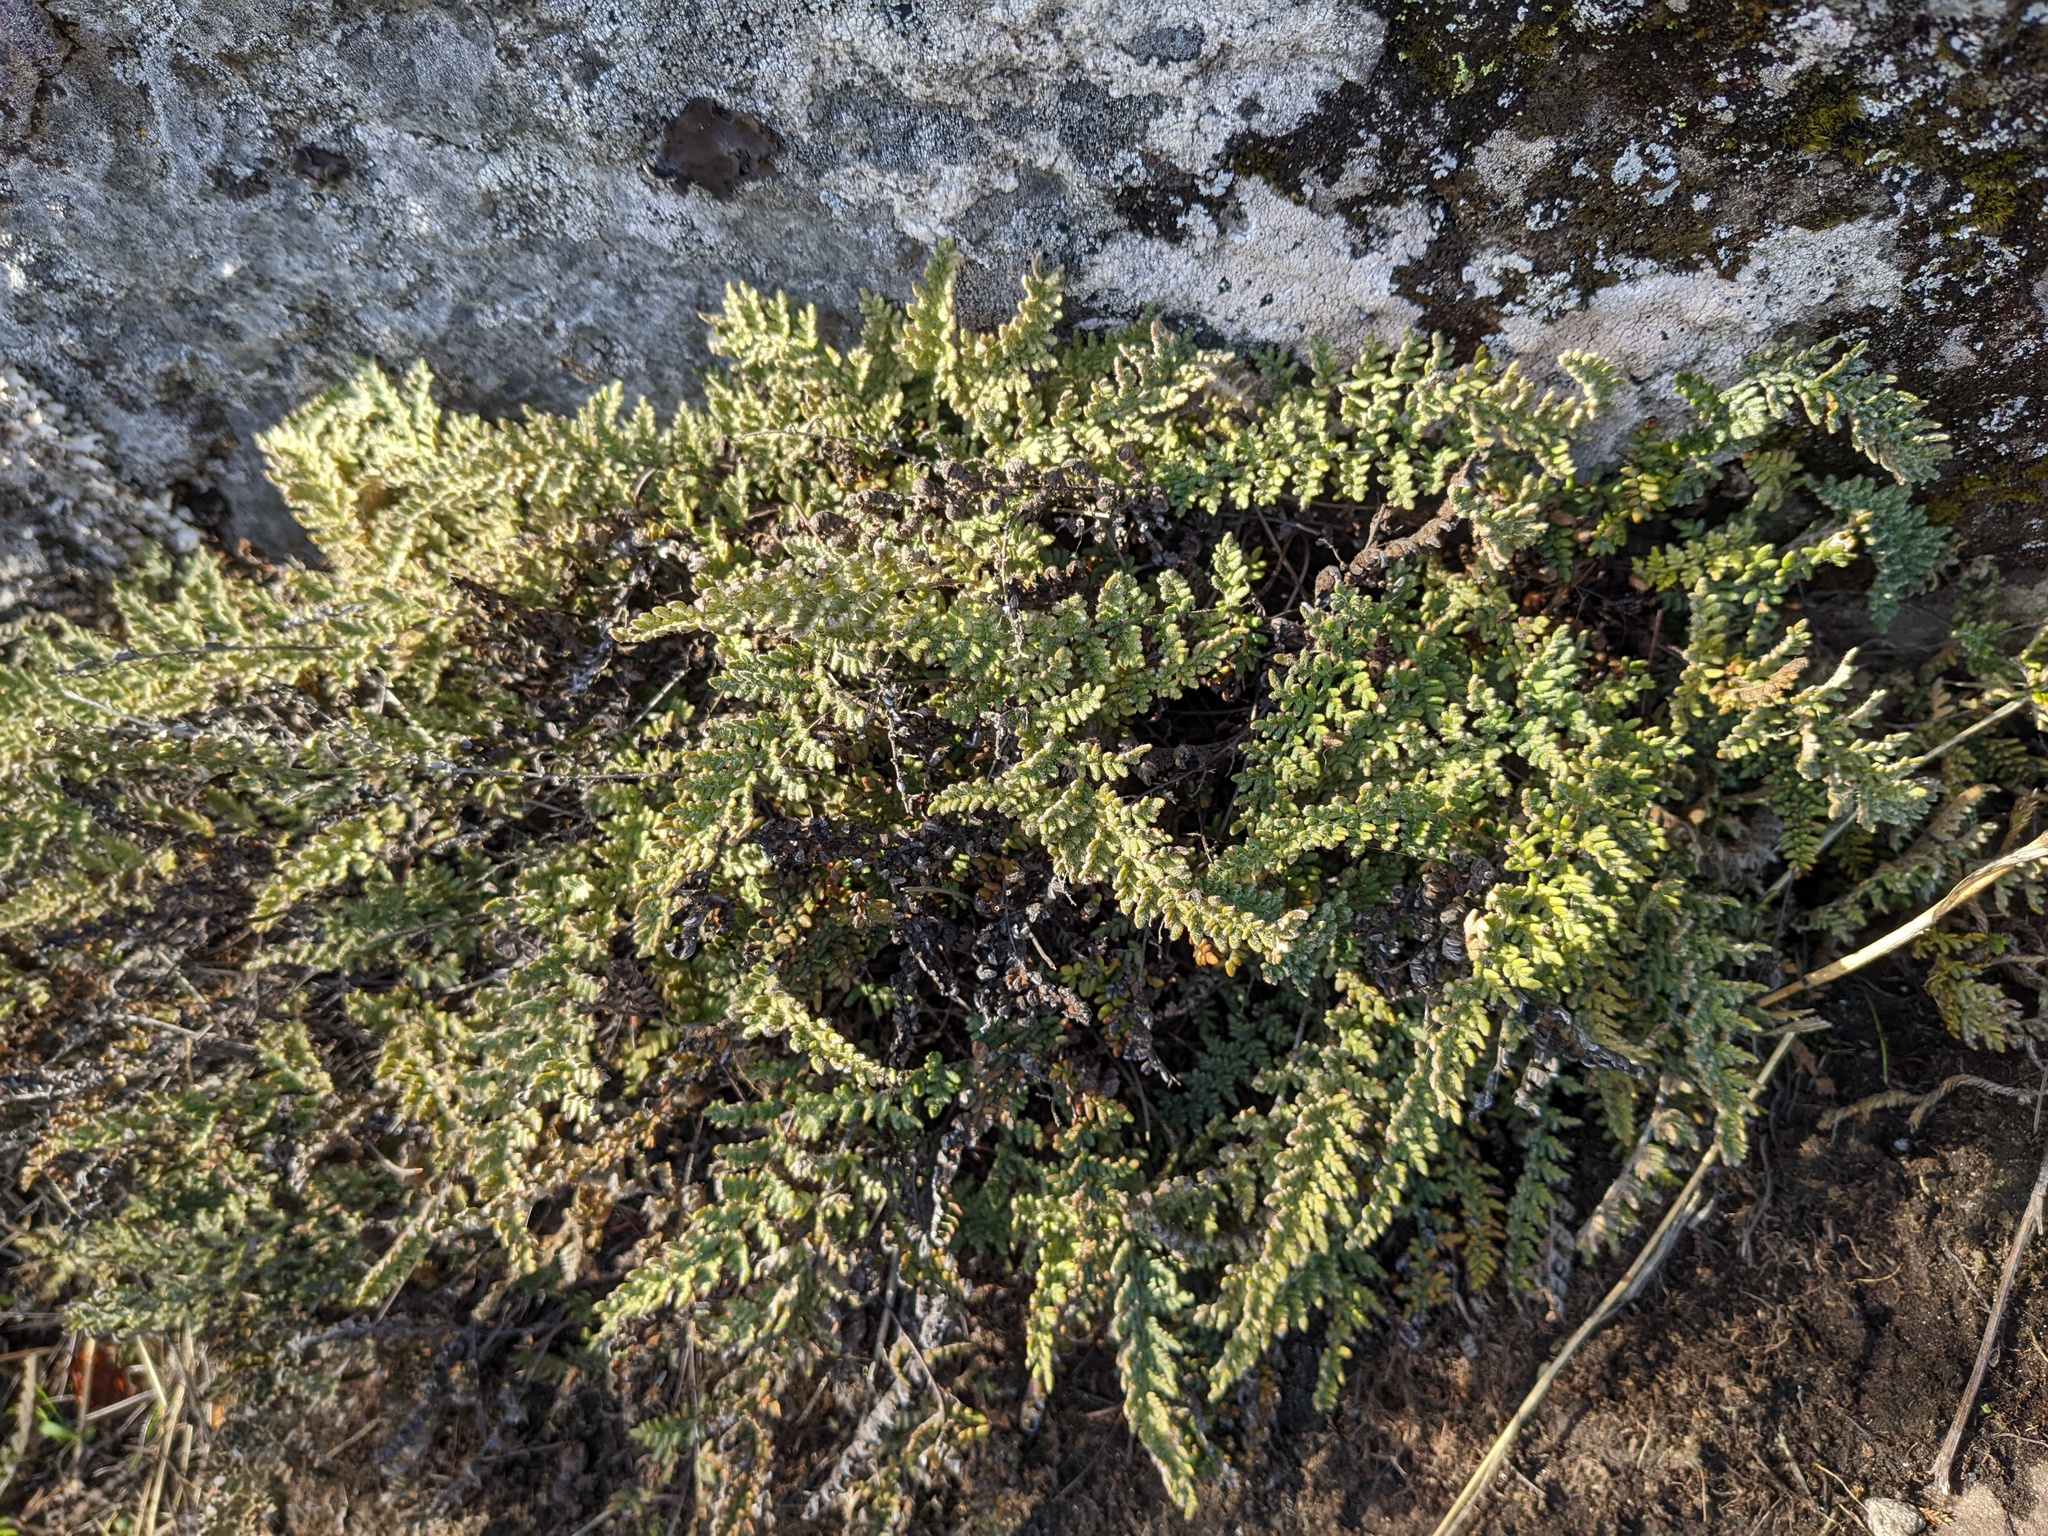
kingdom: Plantae
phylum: Tracheophyta
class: Polypodiopsida
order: Polypodiales
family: Pteridaceae
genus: Myriopteris
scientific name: Myriopteris gracillima
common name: Lace fern
